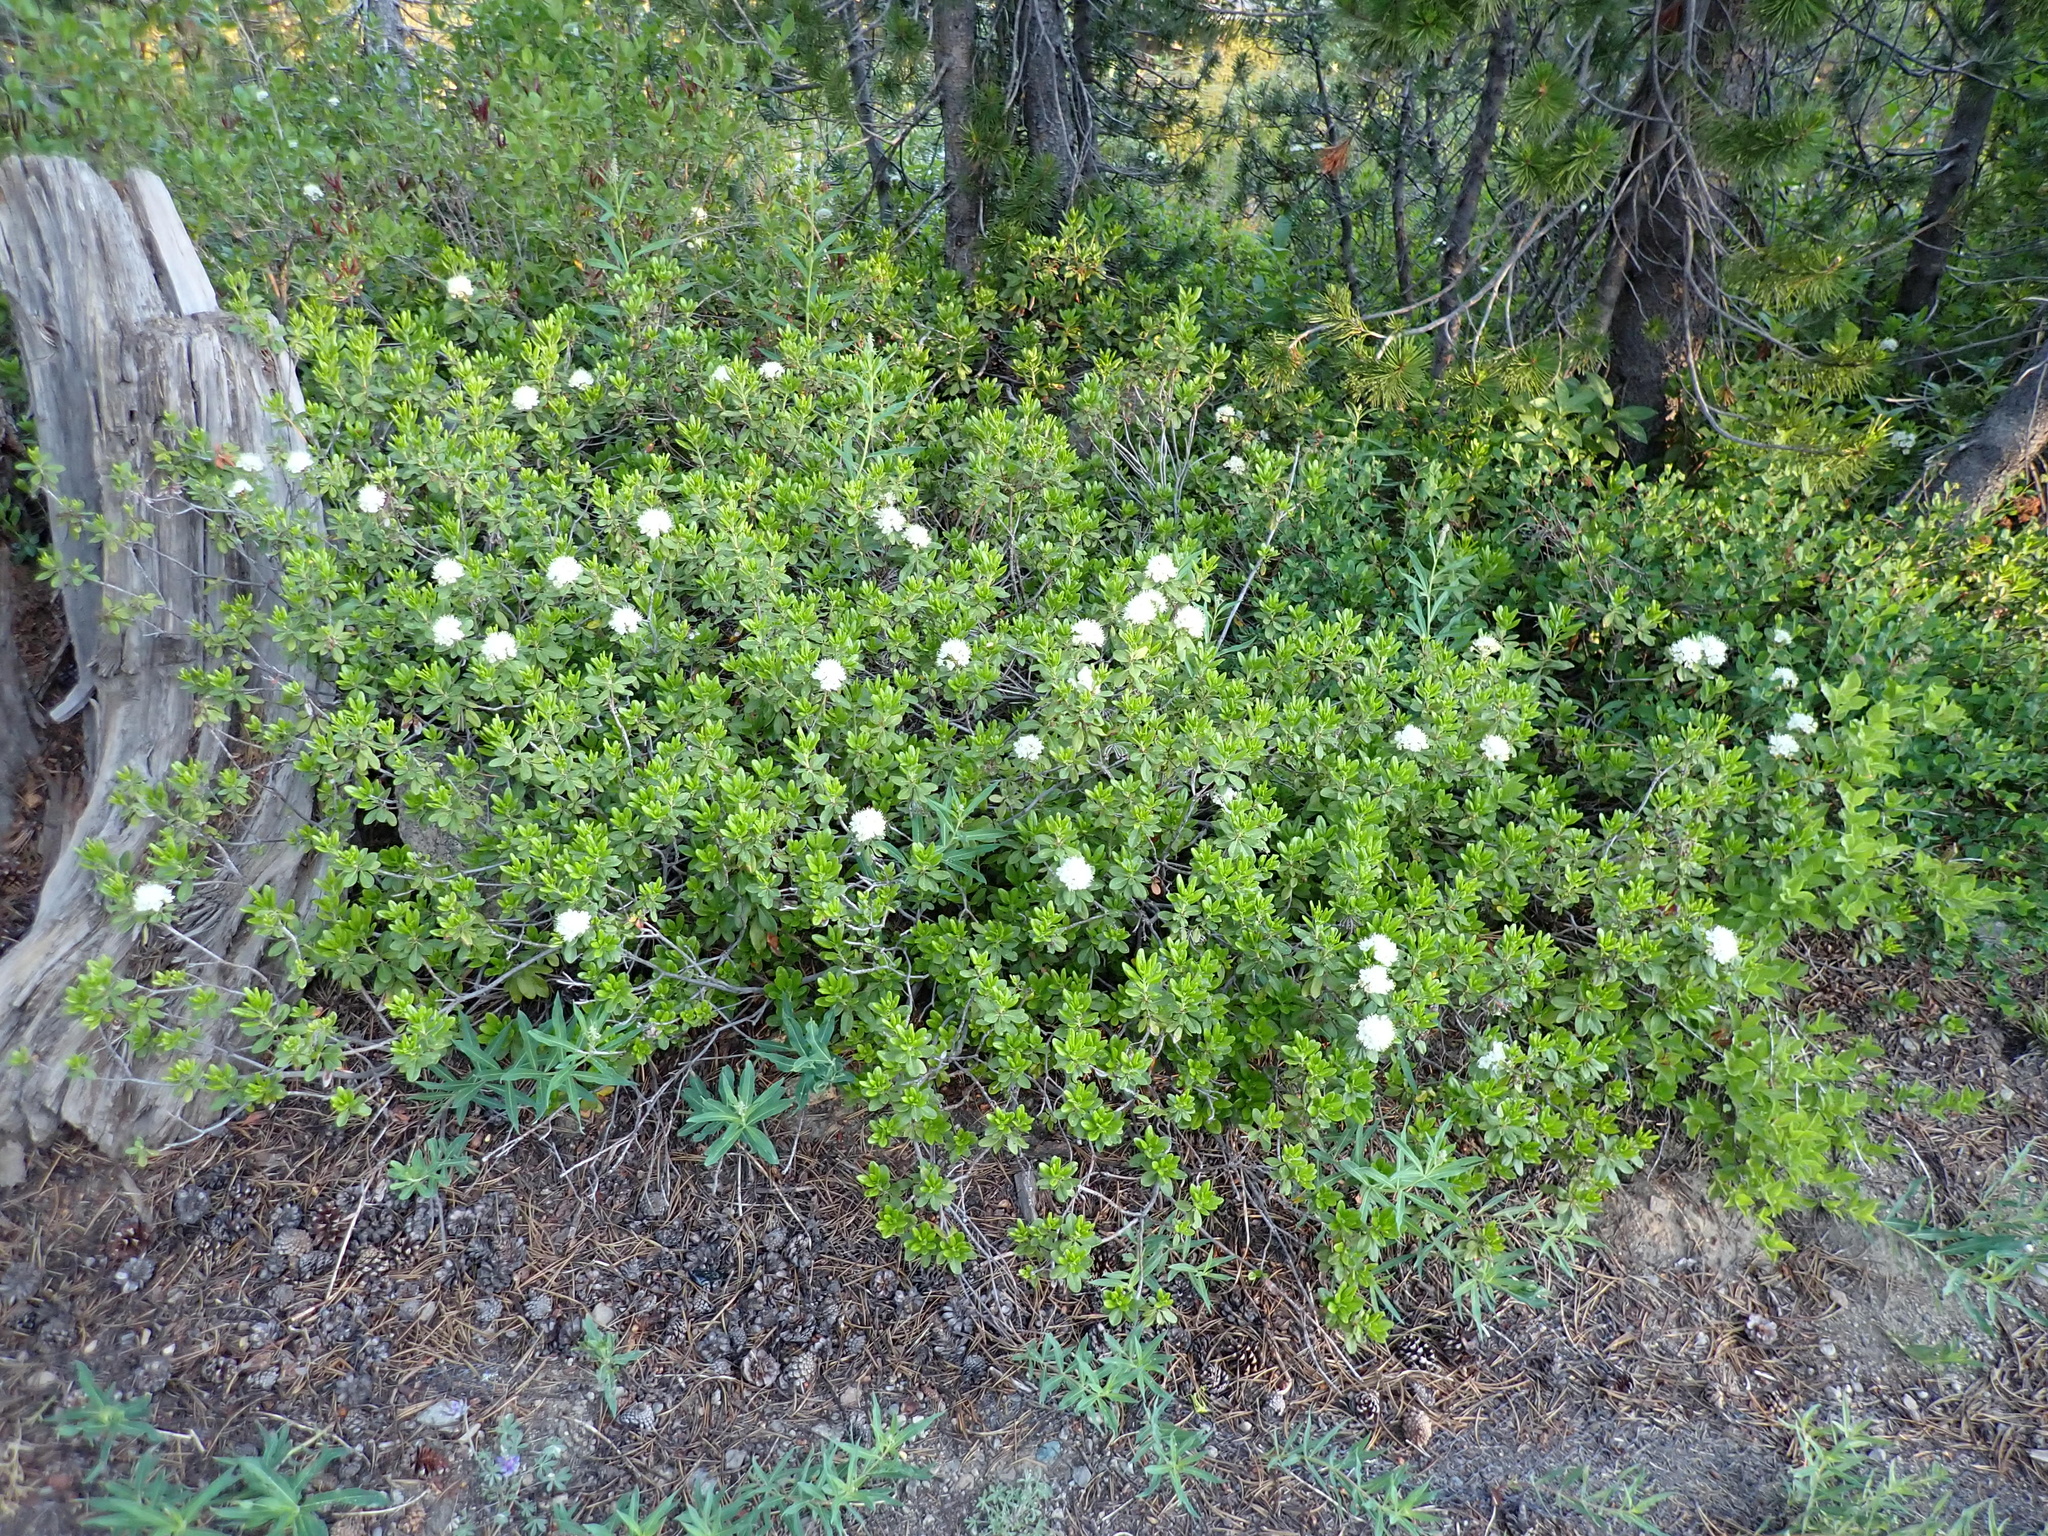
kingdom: Plantae
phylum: Tracheophyta
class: Magnoliopsida
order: Ericales
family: Ericaceae
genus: Rhododendron
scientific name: Rhododendron columbianum
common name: Western labrador tea
